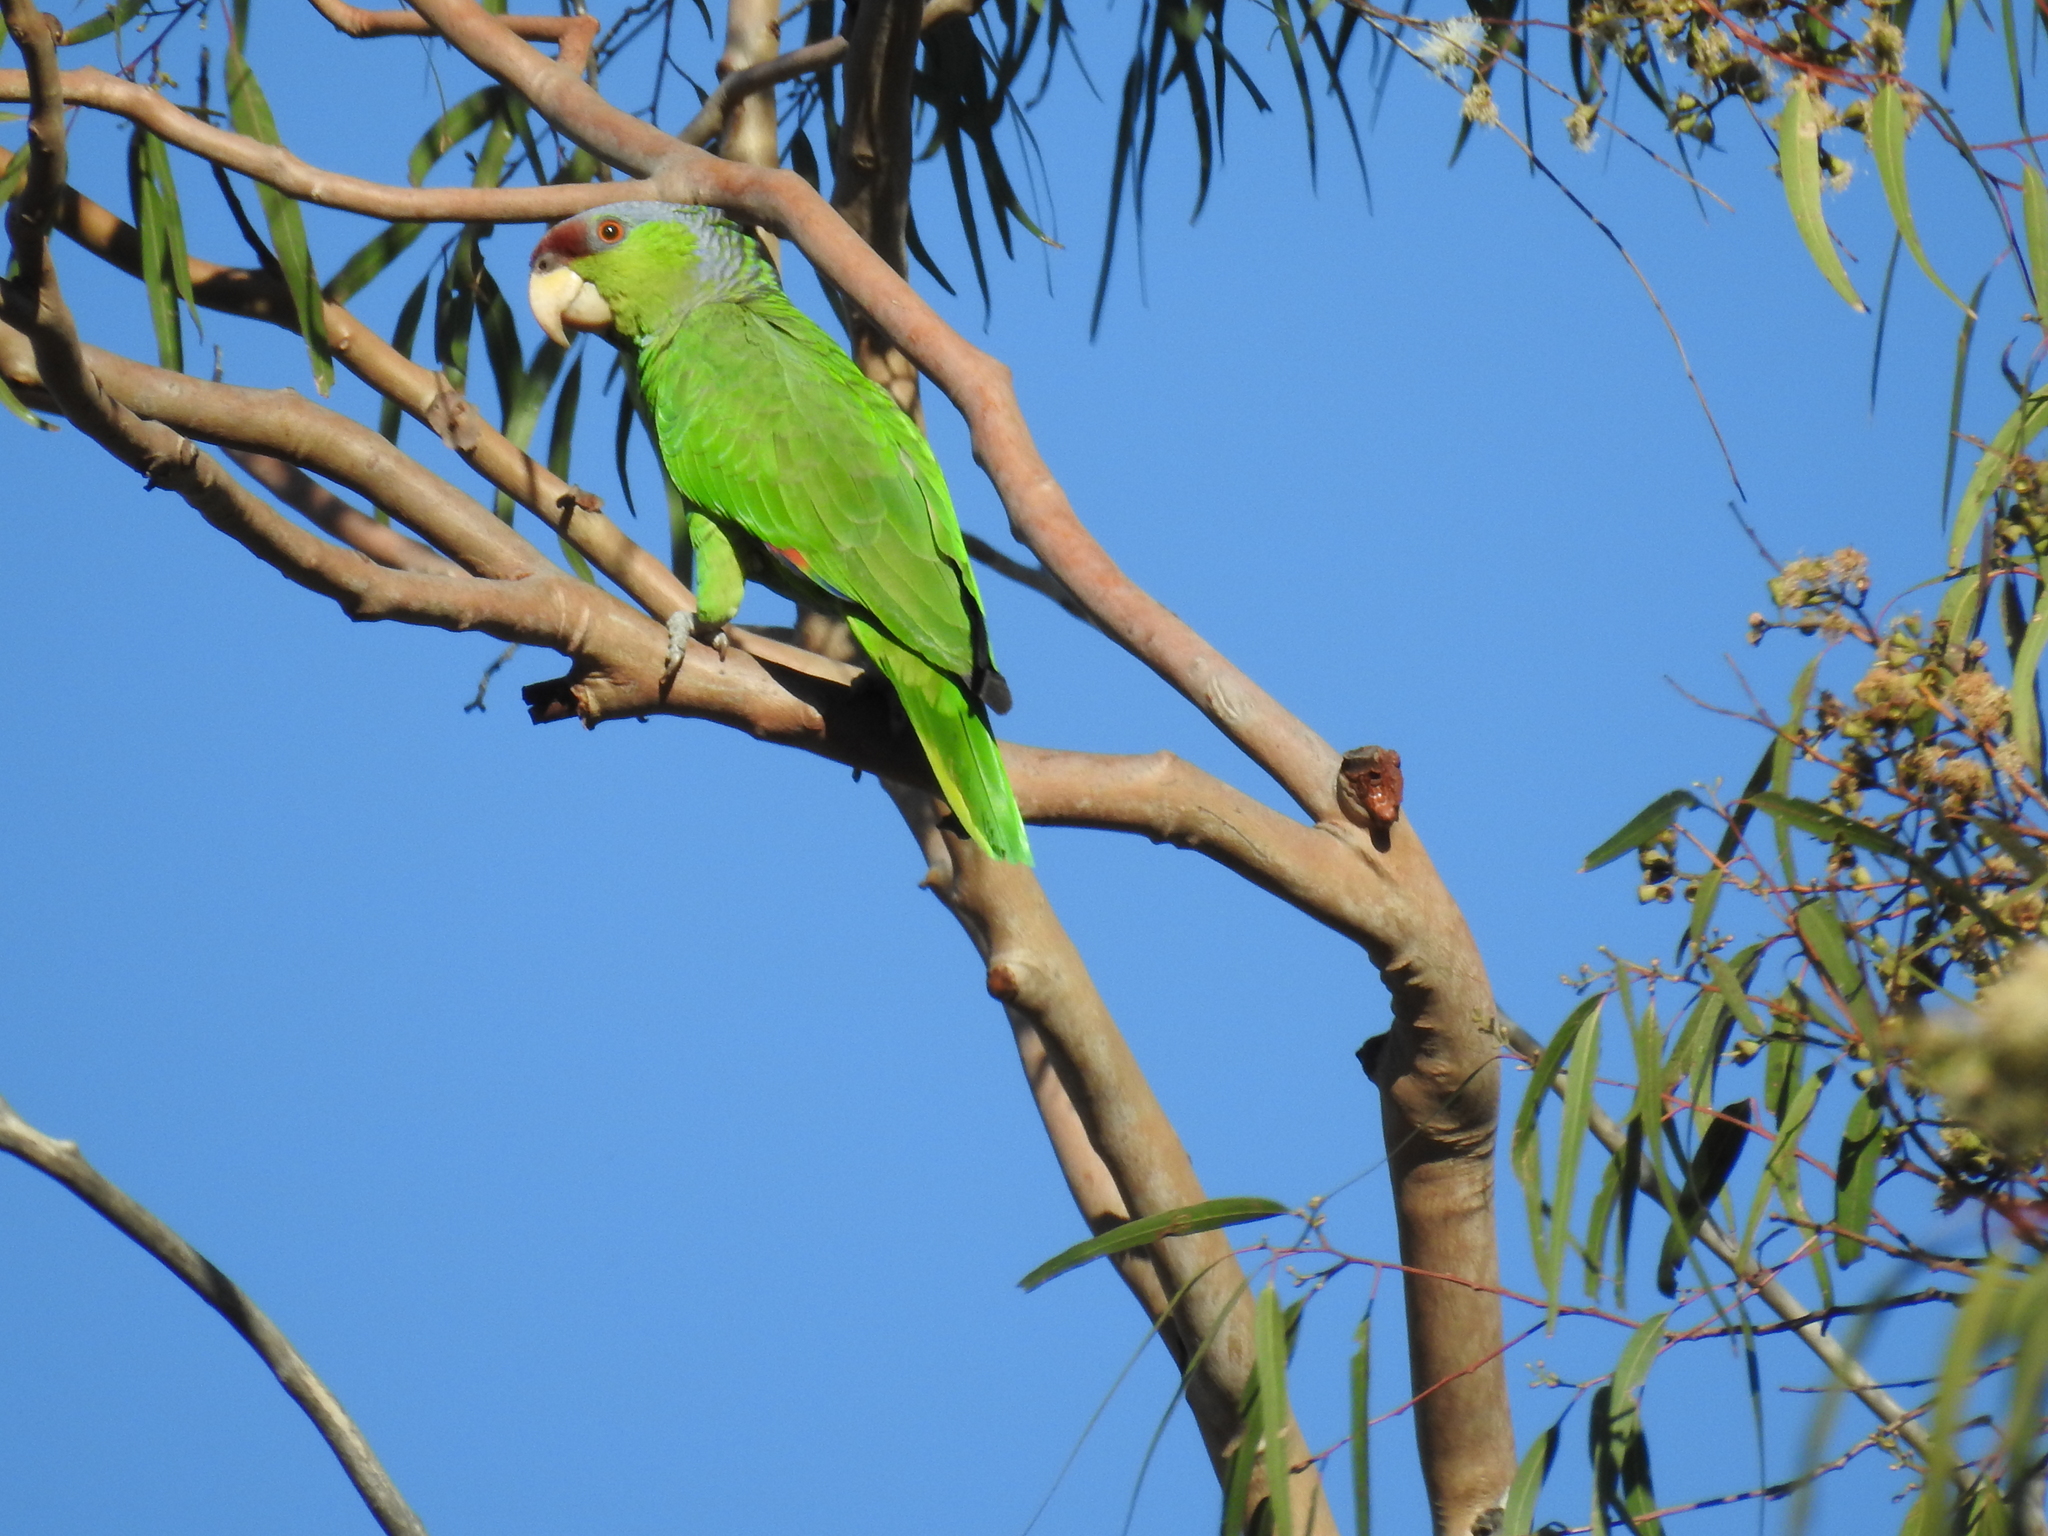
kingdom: Animalia
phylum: Chordata
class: Aves
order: Psittaciformes
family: Psittacidae
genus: Amazona
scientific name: Amazona finschi
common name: Lilac-crowned amazon
